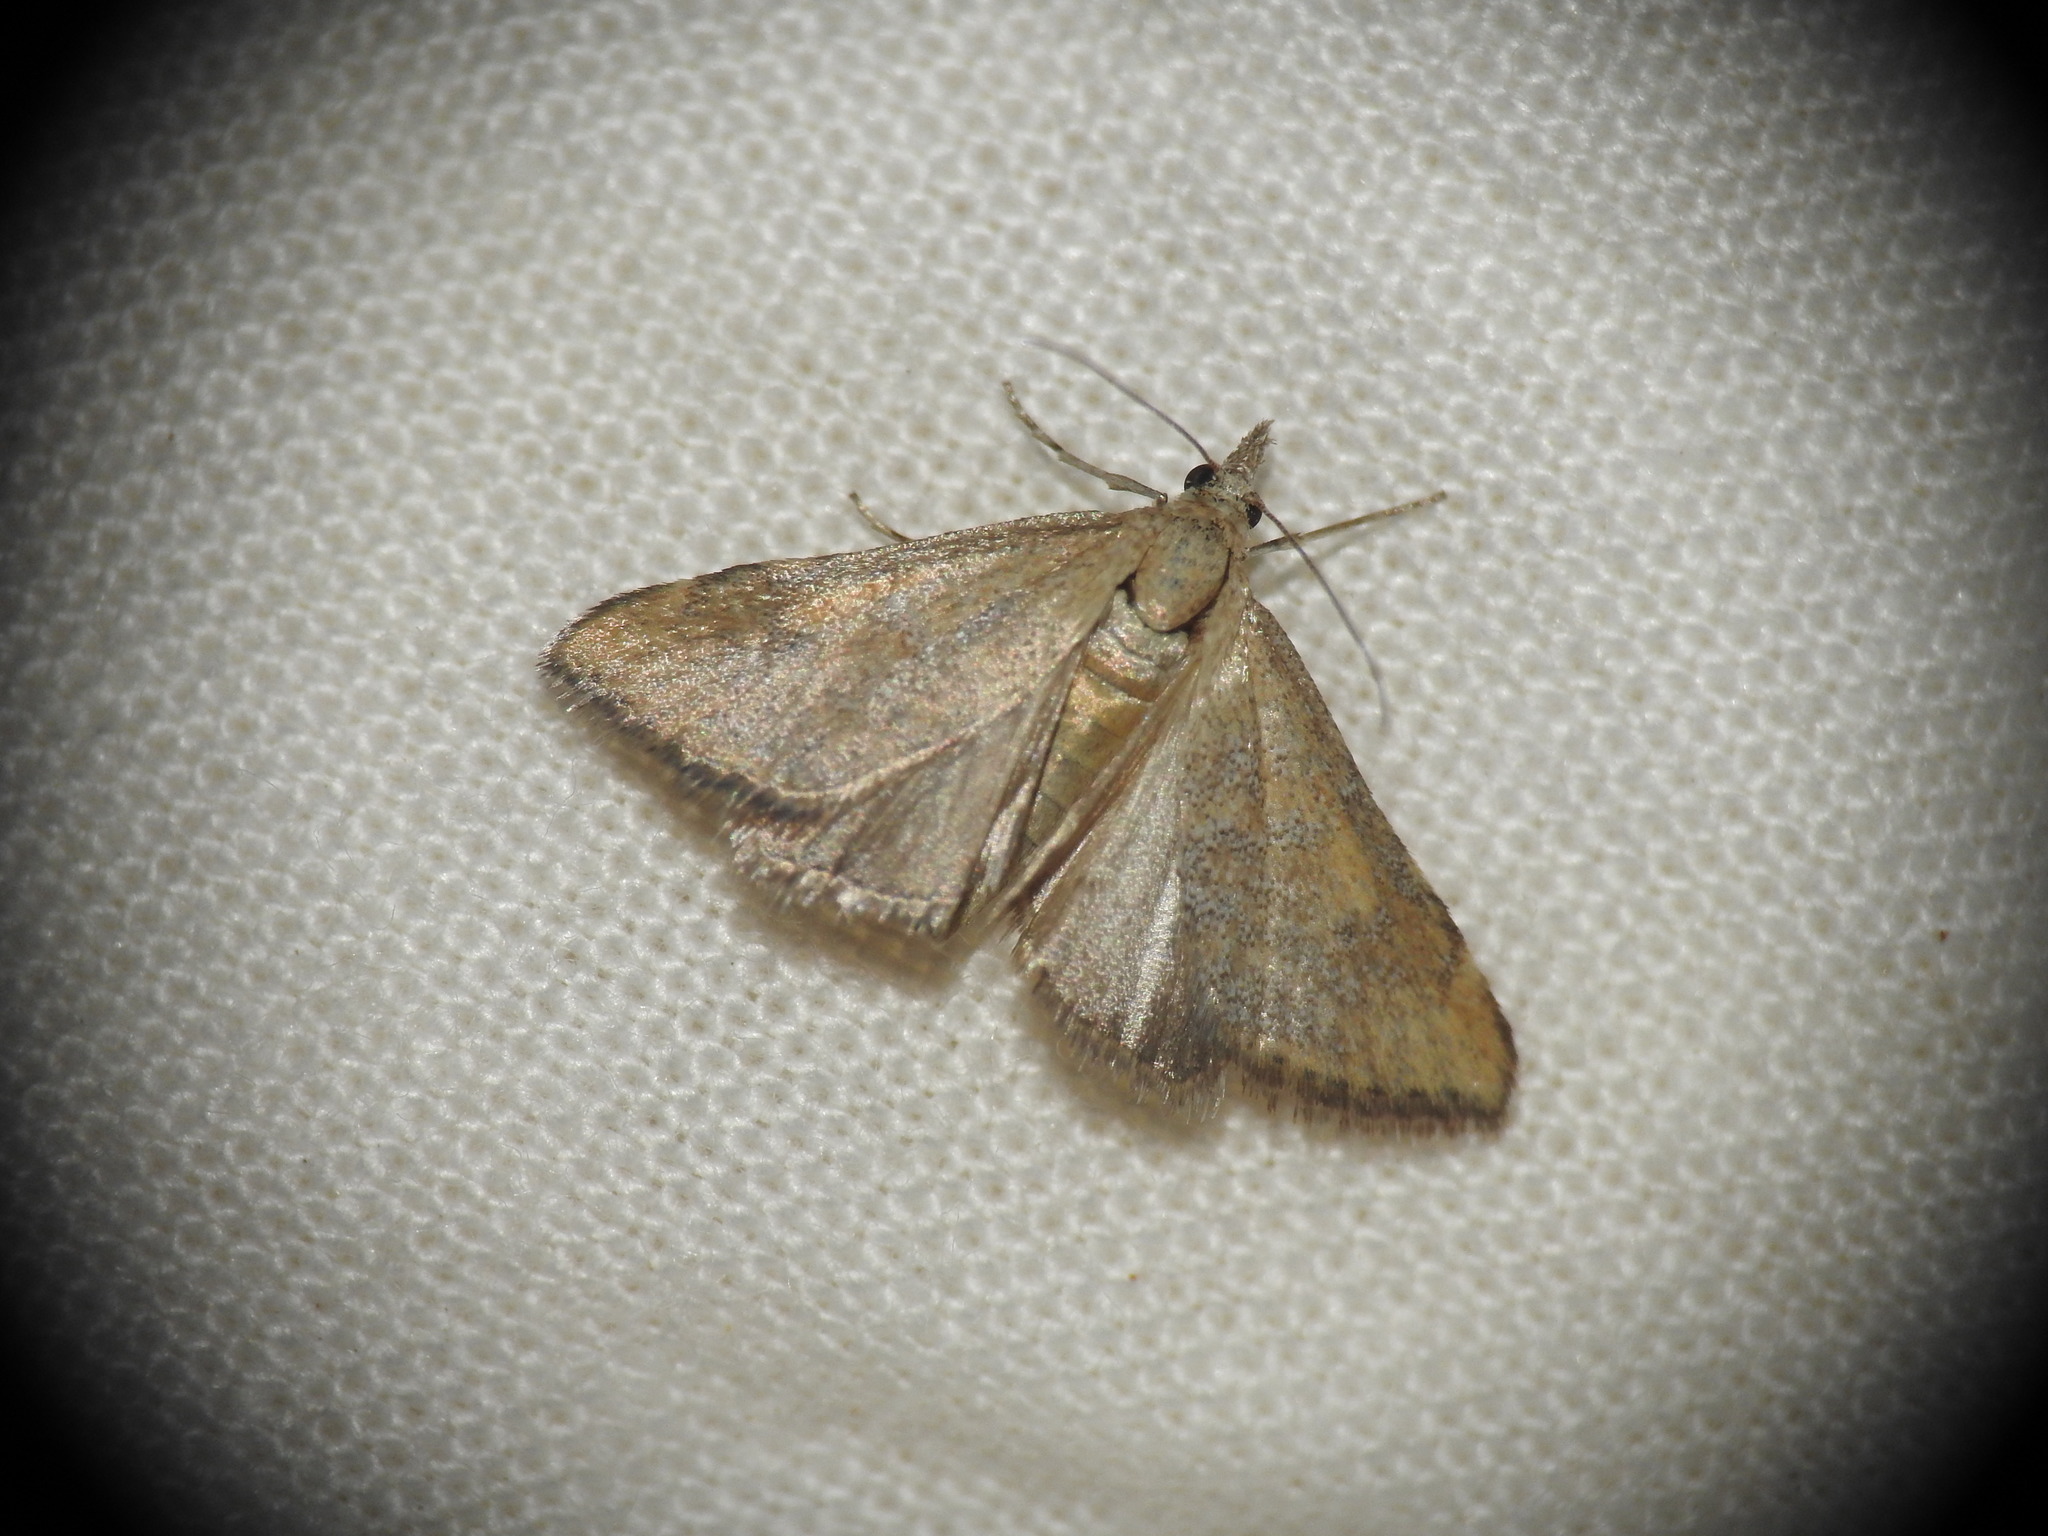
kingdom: Animalia
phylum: Arthropoda
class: Insecta
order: Lepidoptera
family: Crambidae
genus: Mecyna
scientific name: Mecyna asinalis
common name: Coastal pearl
